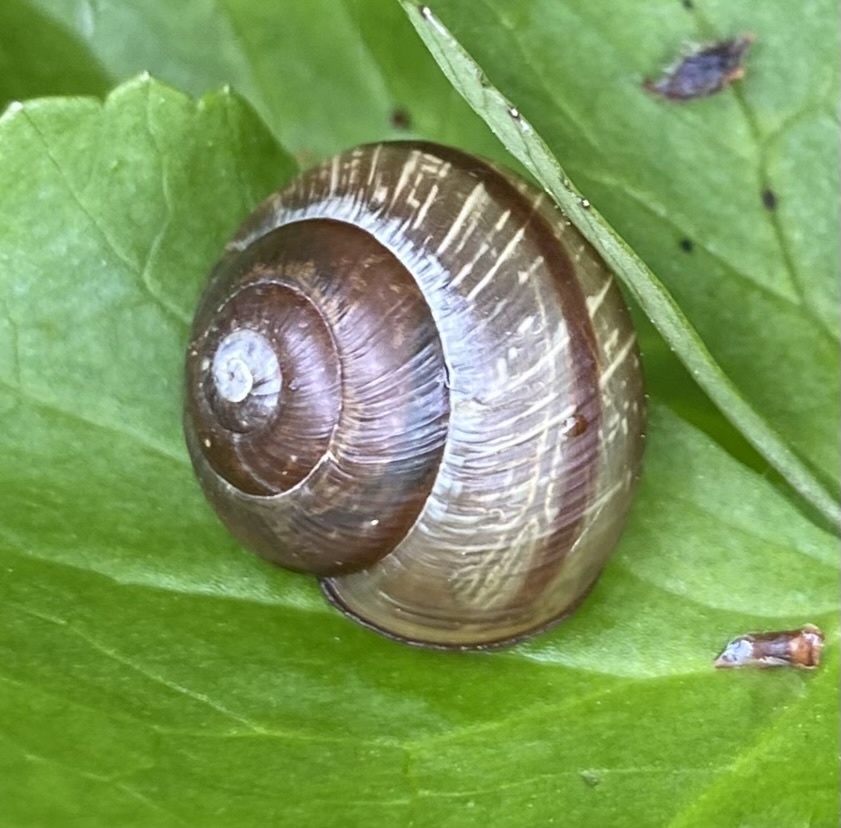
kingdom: Animalia
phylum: Mollusca
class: Gastropoda
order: Stylommatophora
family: Helicidae
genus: Arianta
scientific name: Arianta arbustorum
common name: Copse snail
